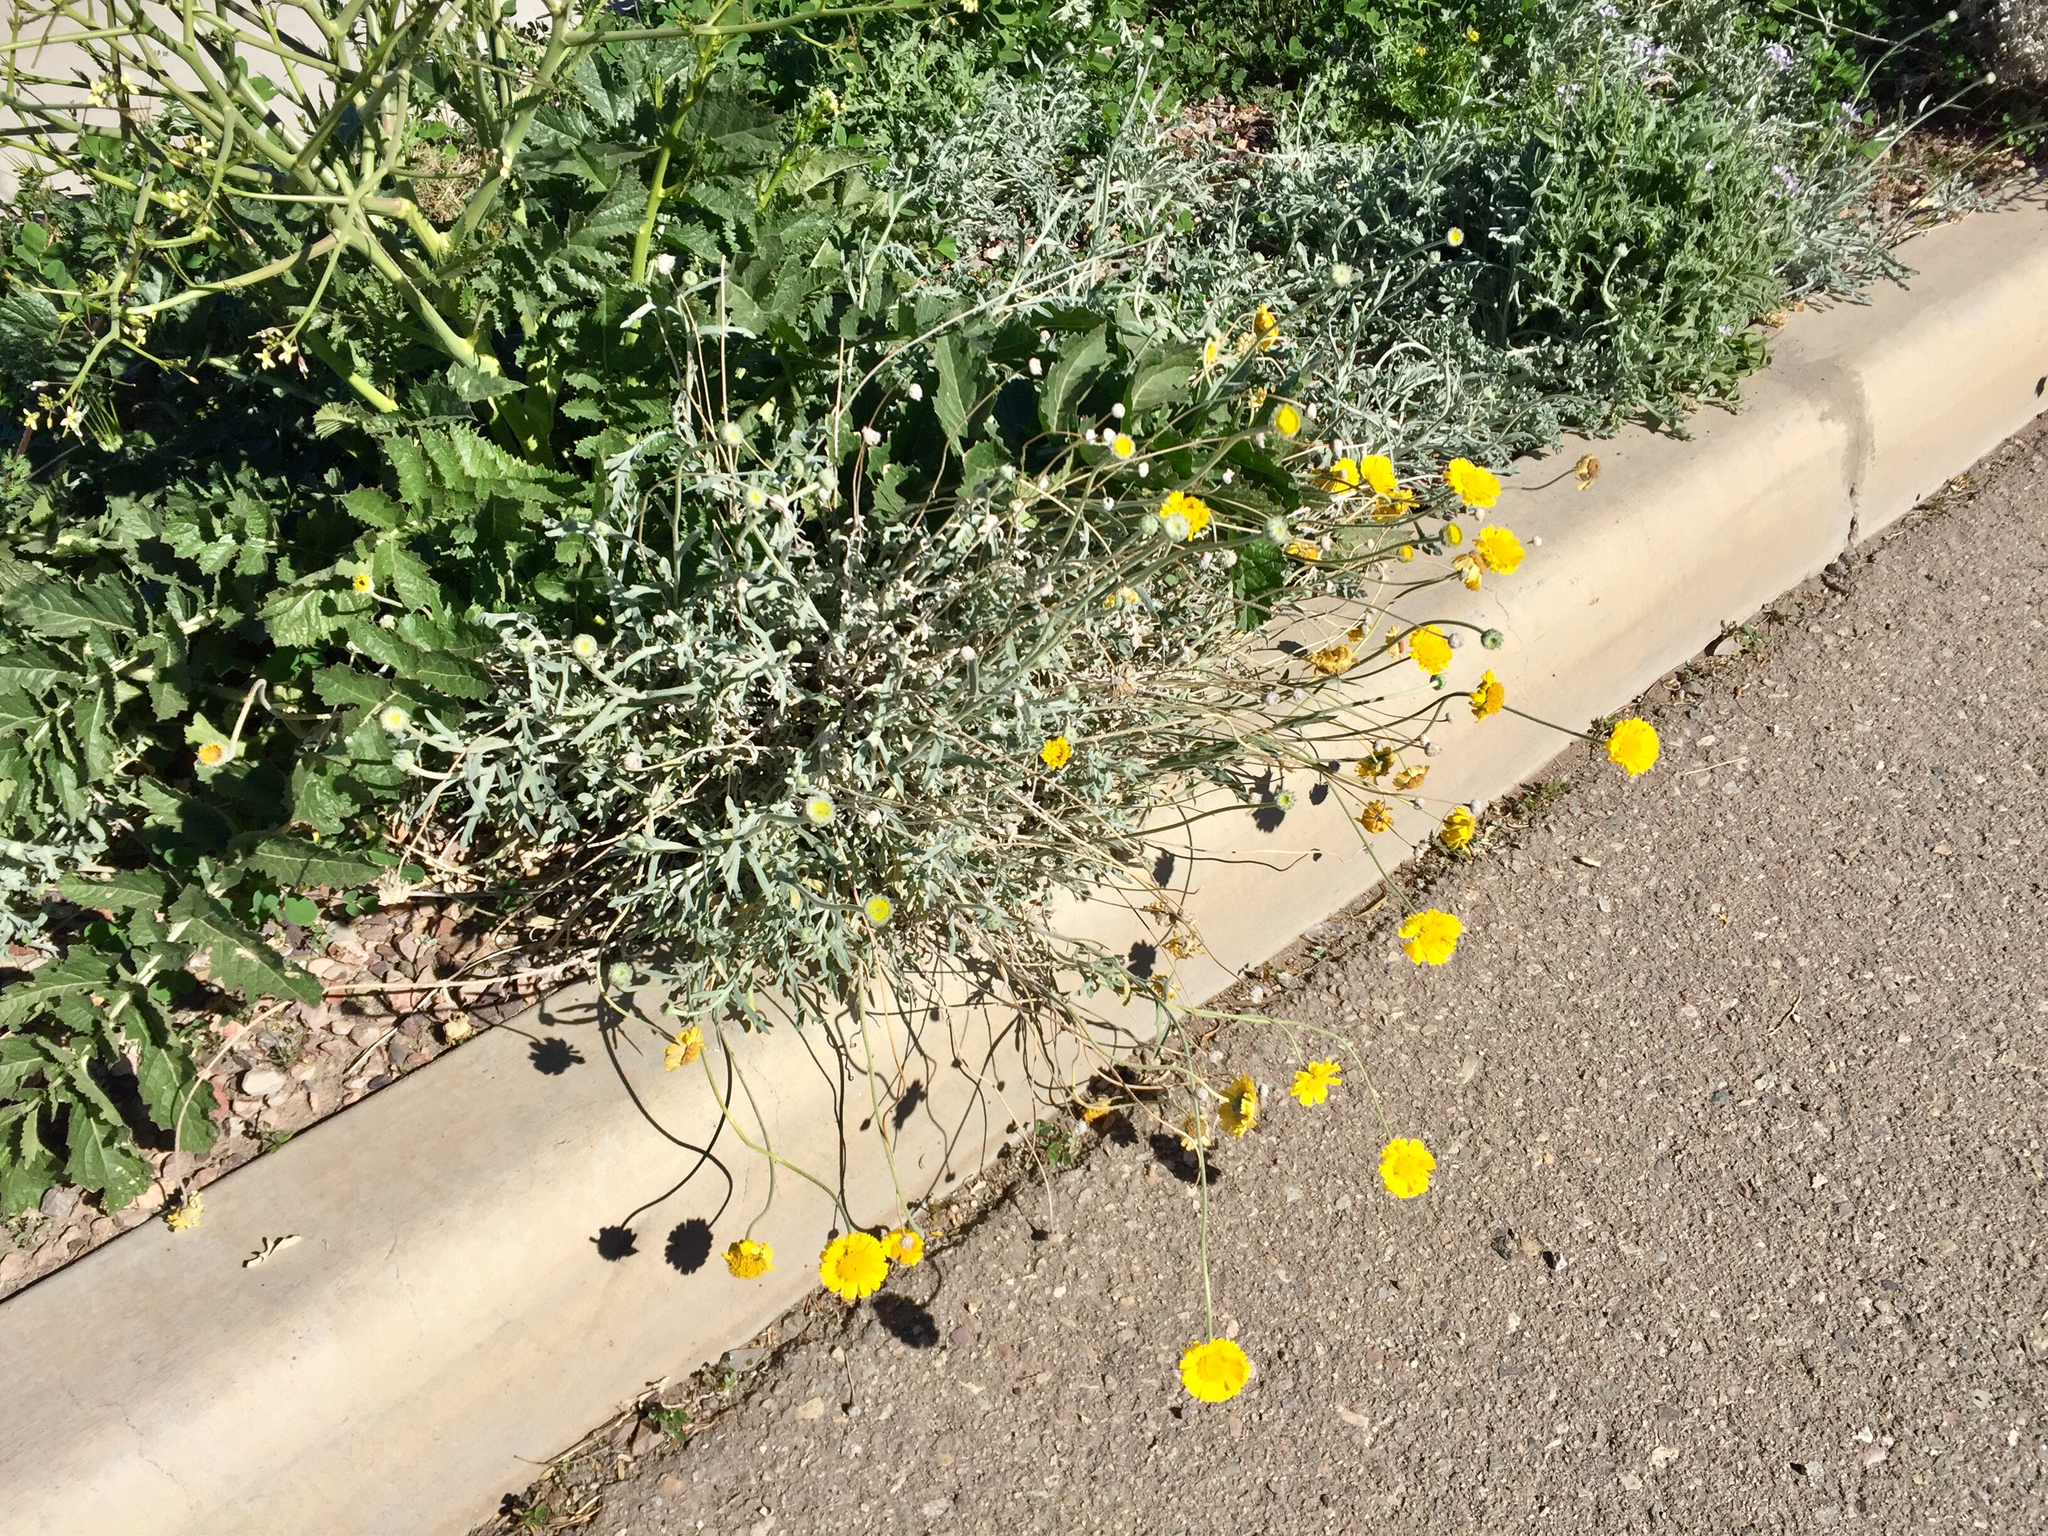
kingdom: Plantae
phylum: Tracheophyta
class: Magnoliopsida
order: Asterales
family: Asteraceae
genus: Baileya
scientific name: Baileya multiradiata
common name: Desert-marigold
